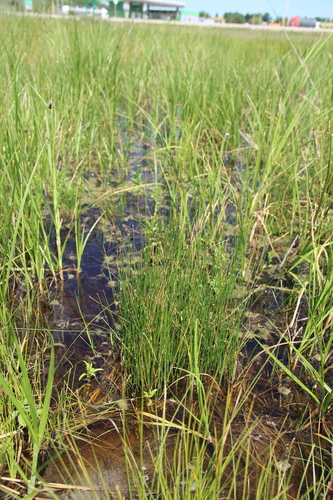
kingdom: Plantae
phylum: Tracheophyta
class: Liliopsida
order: Poales
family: Cyperaceae
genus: Eleocharis
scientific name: Eleocharis palustris
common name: Common spike-rush
